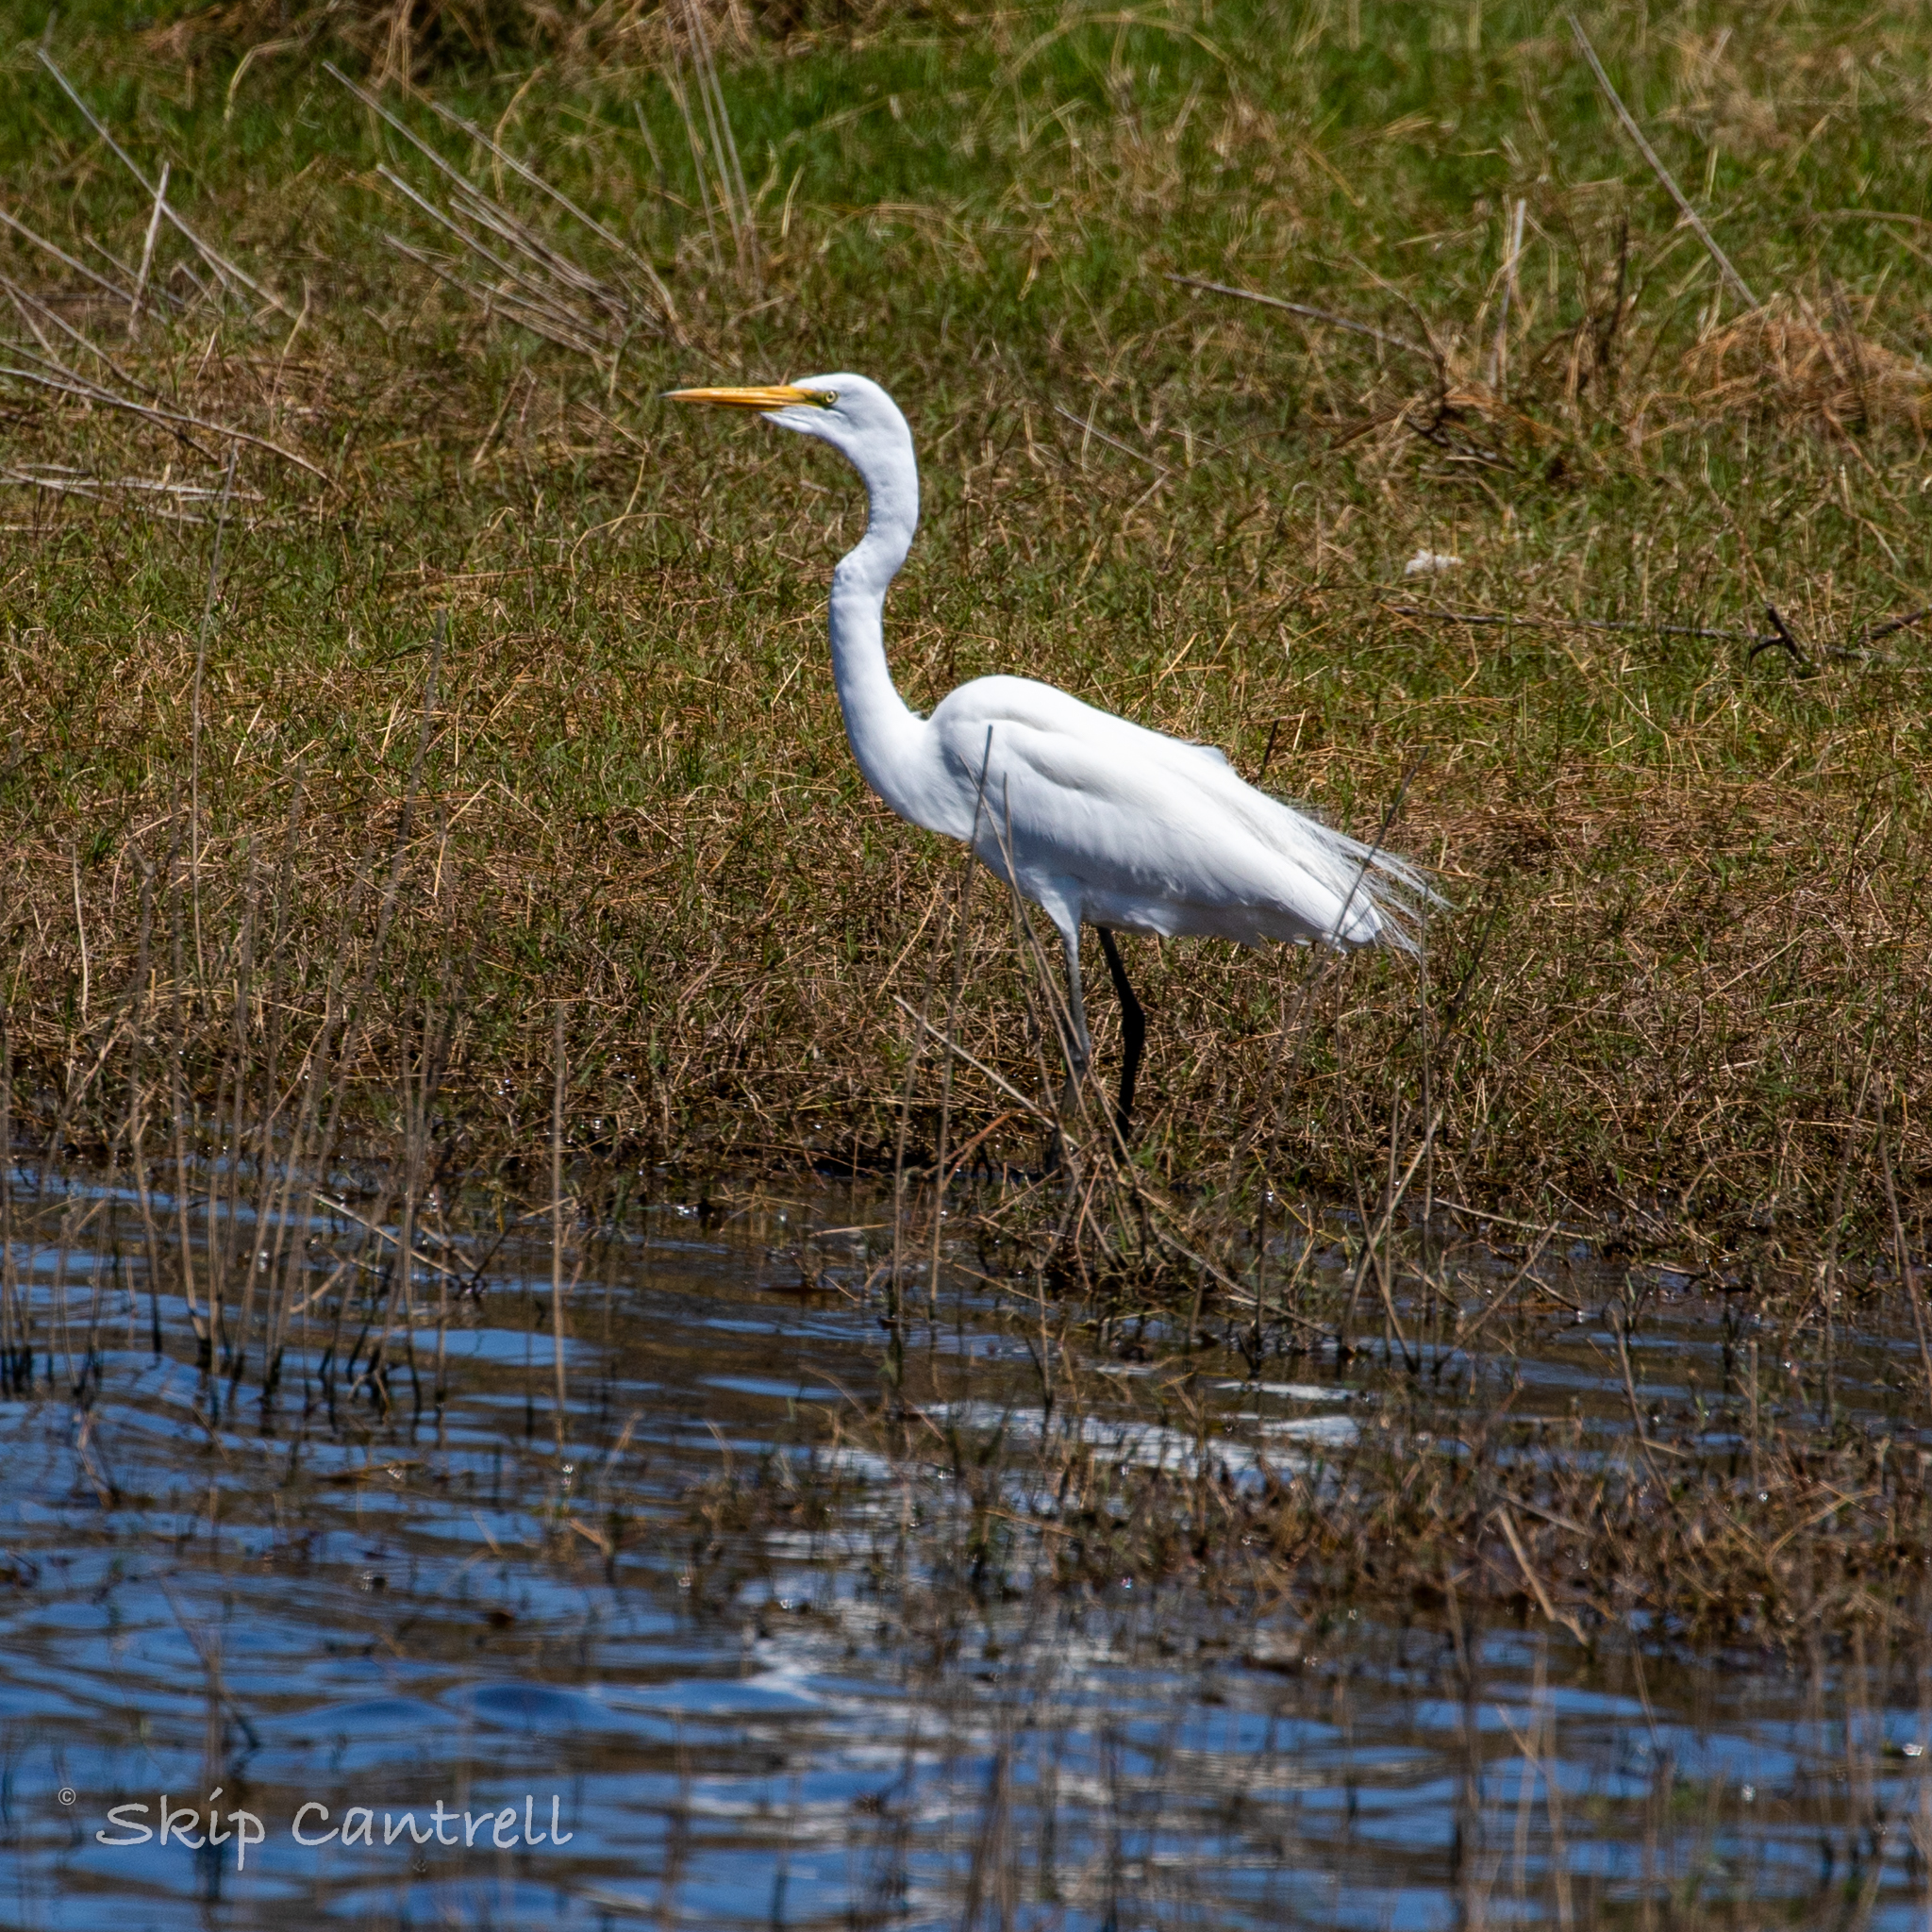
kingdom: Animalia
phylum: Chordata
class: Aves
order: Pelecaniformes
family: Ardeidae
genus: Ardea
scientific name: Ardea alba
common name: Great egret
